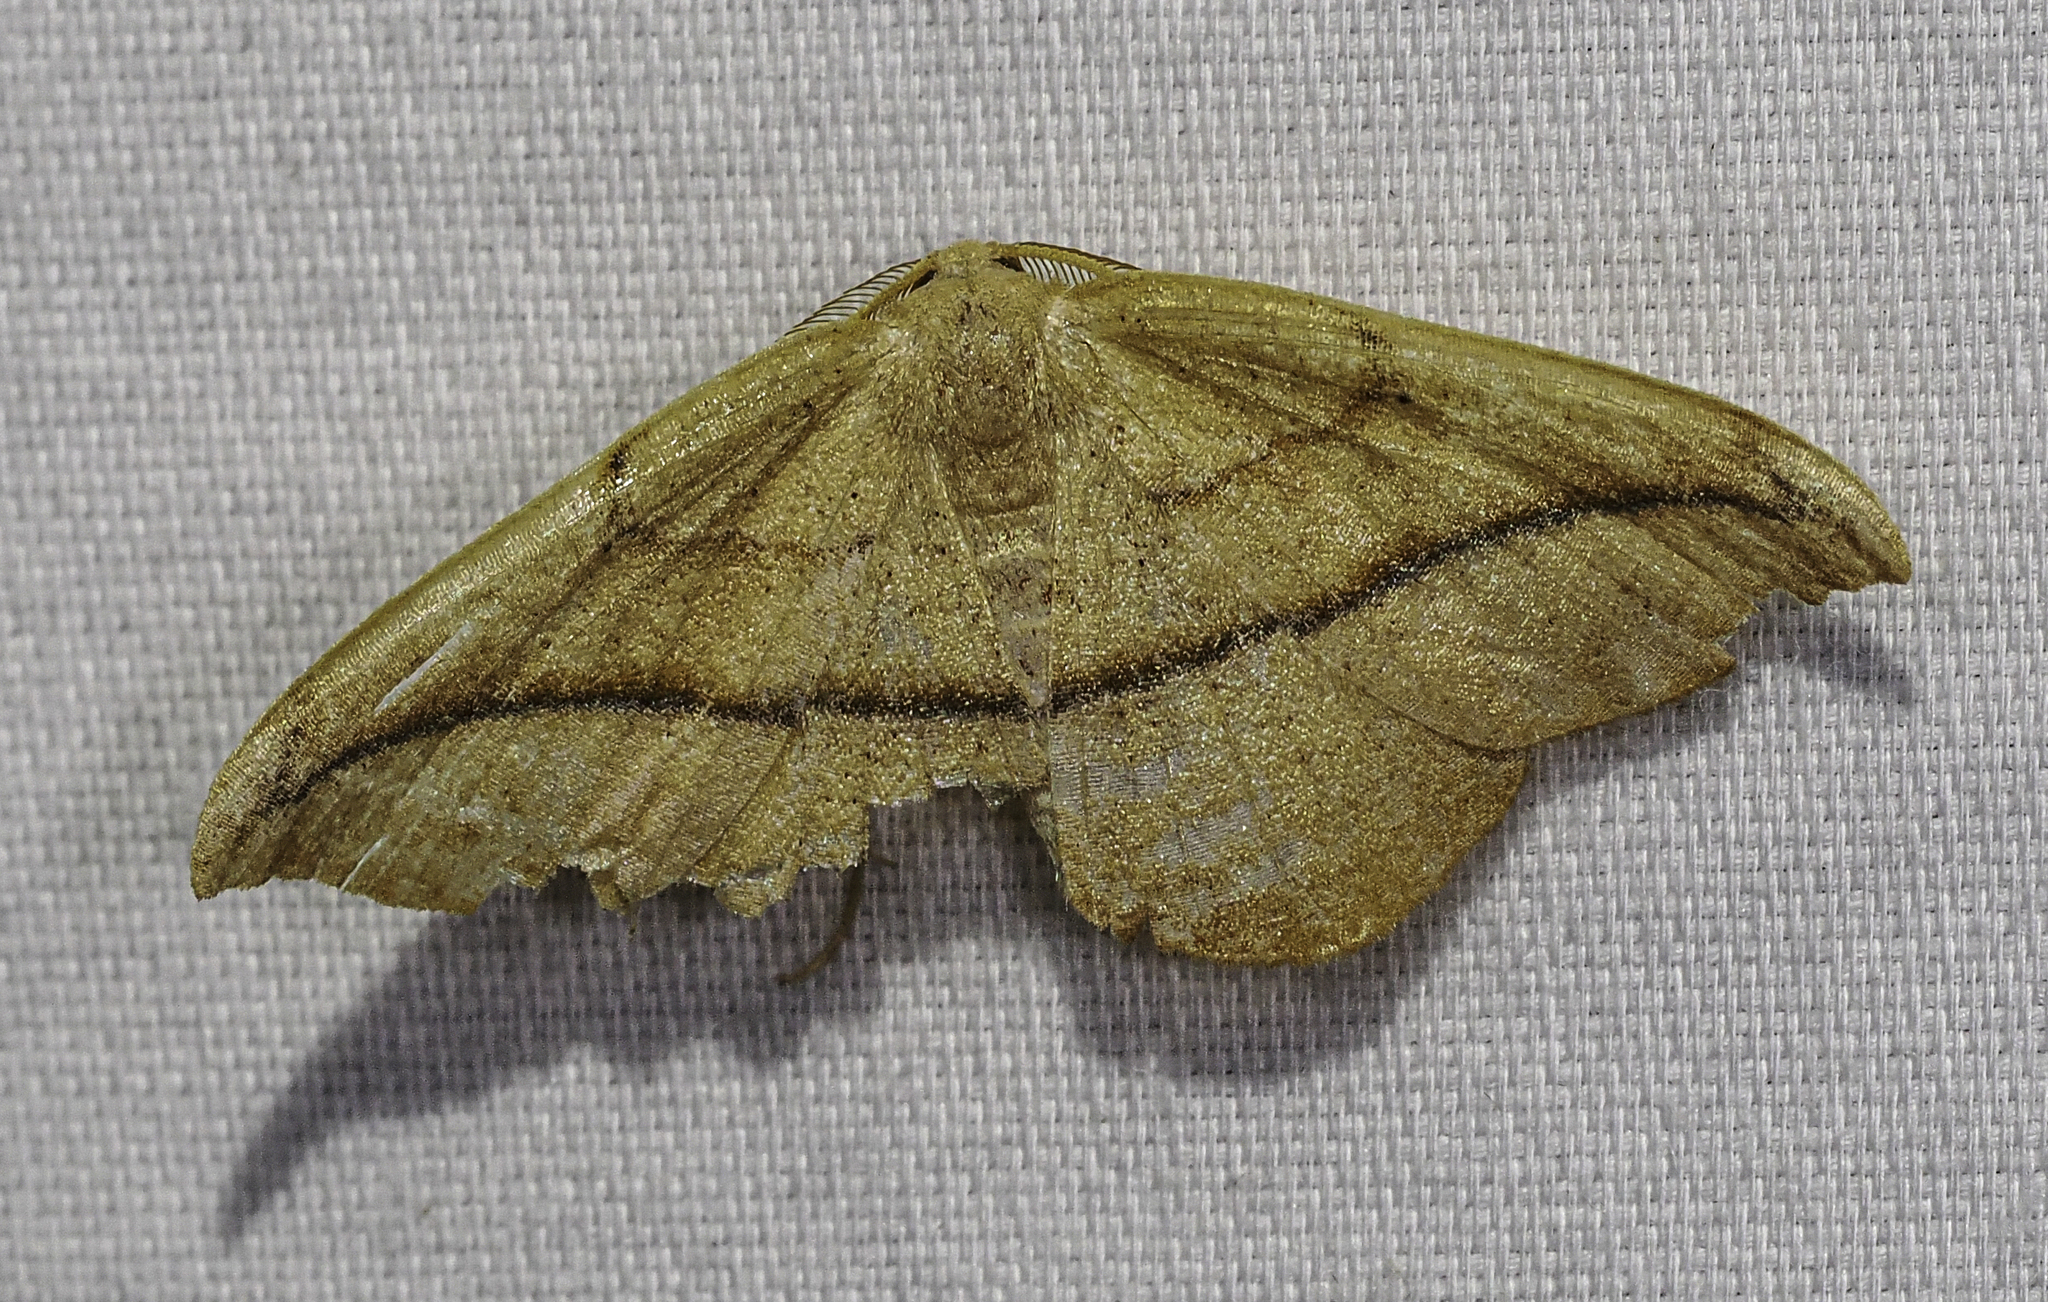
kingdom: Animalia
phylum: Arthropoda
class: Insecta
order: Lepidoptera
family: Geometridae
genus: Patalene
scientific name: Patalene olyzonaria
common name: Juniper geometer moth
